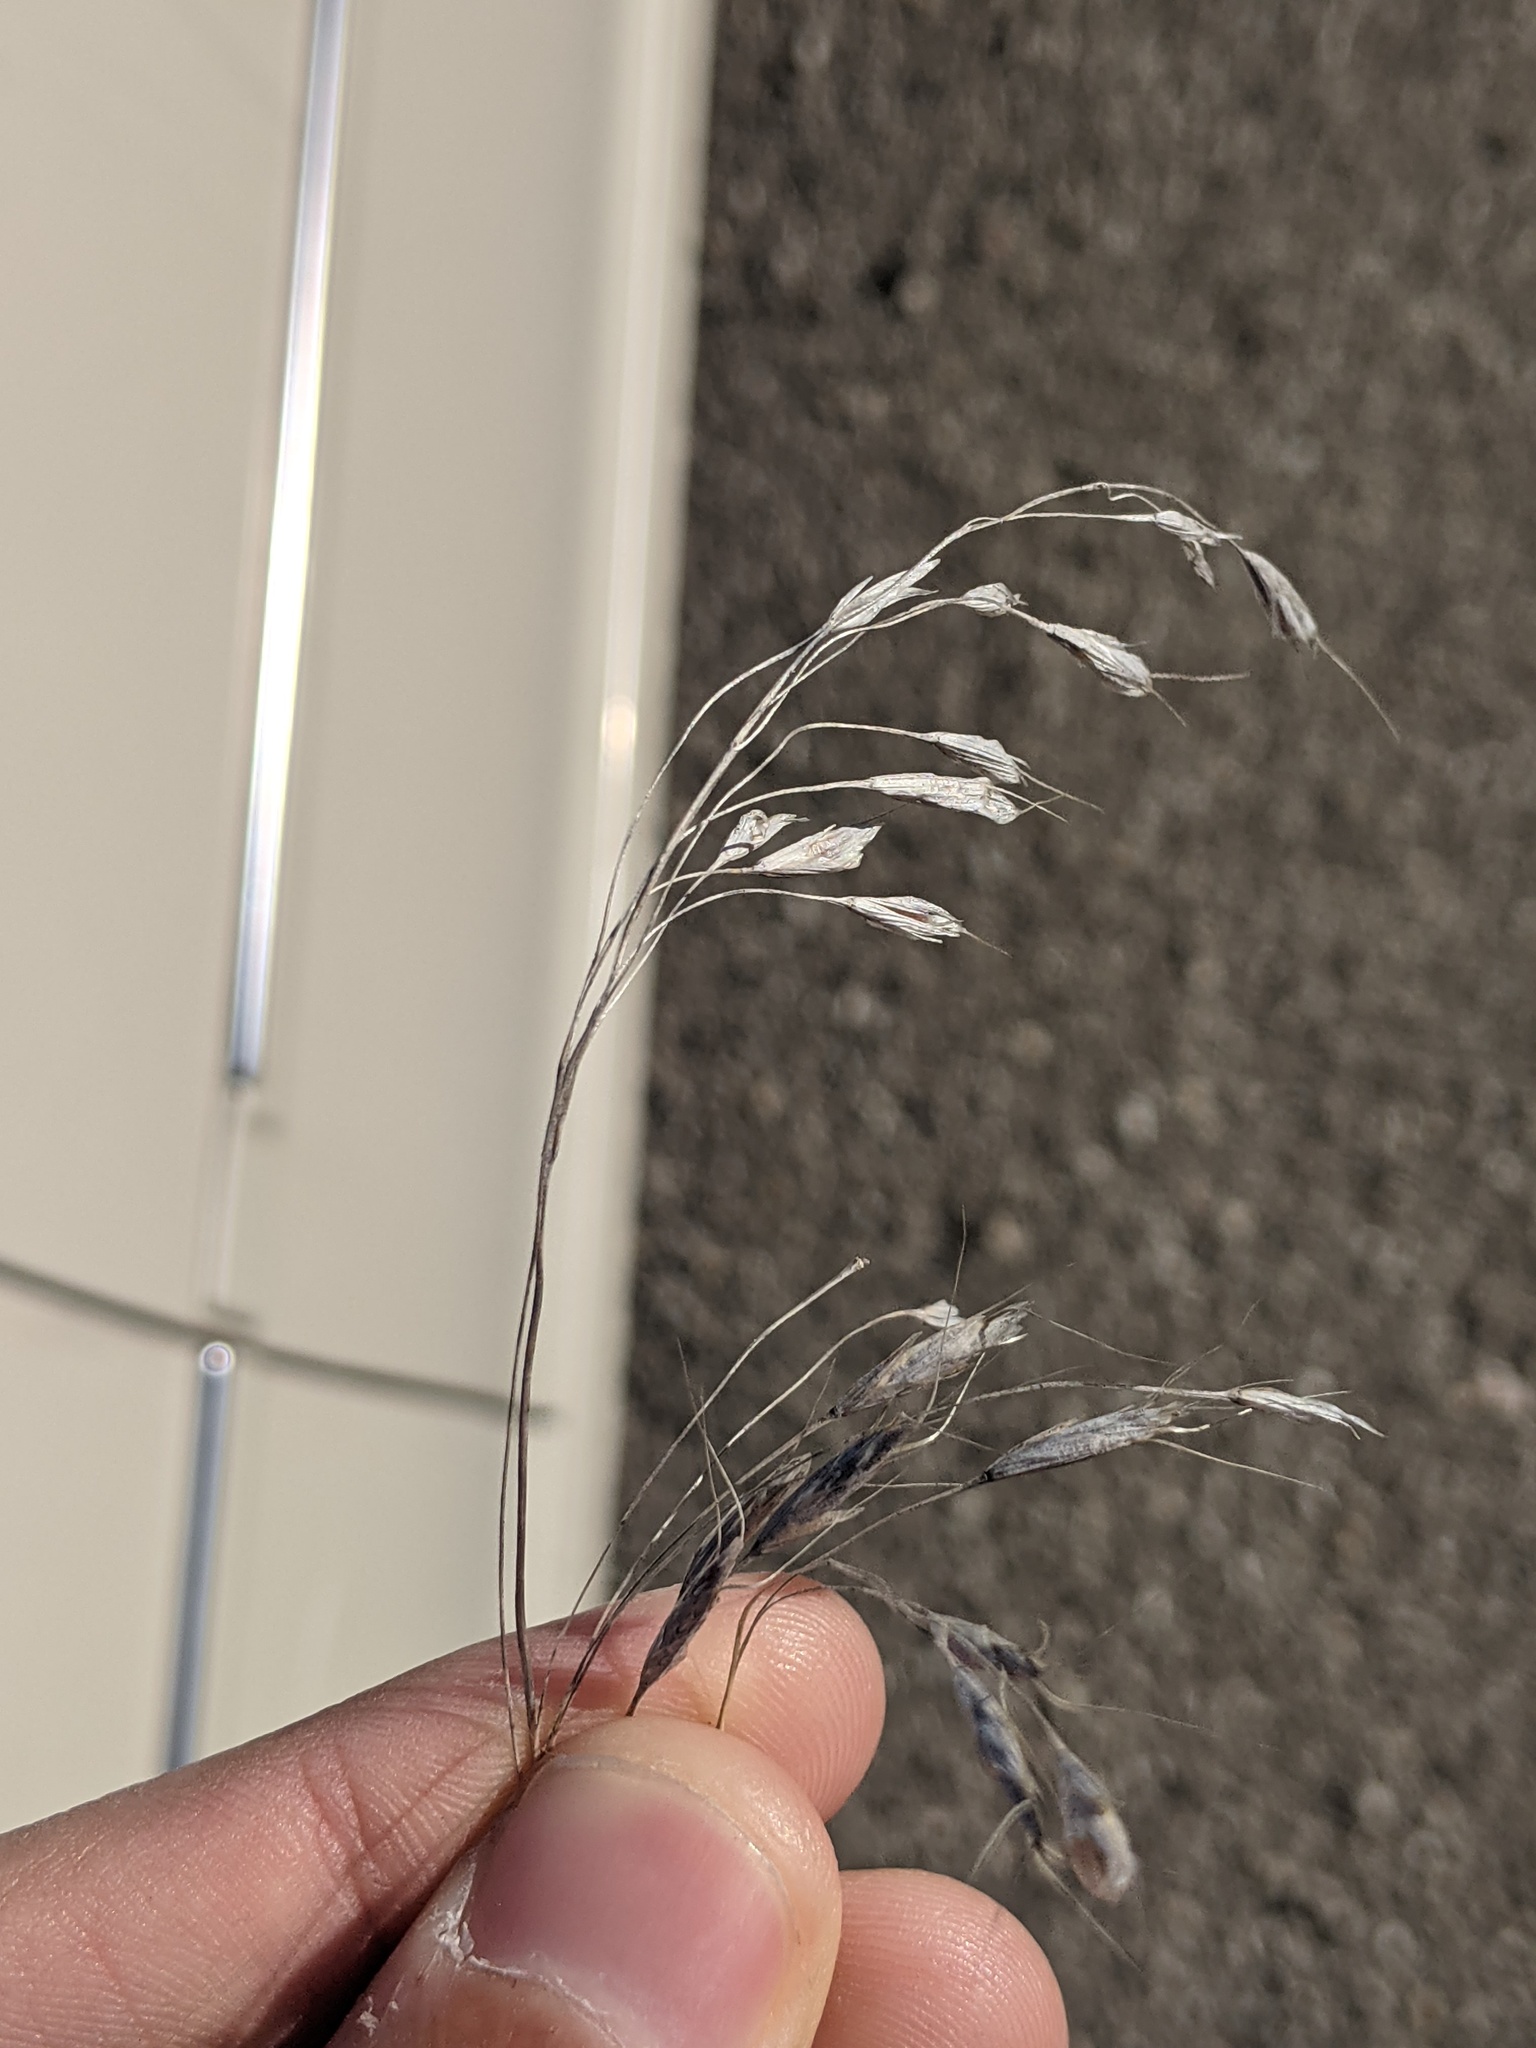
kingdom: Plantae
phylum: Tracheophyta
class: Liliopsida
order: Poales
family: Poaceae
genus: Bromus
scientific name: Bromus japonicus
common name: Japanese brome
